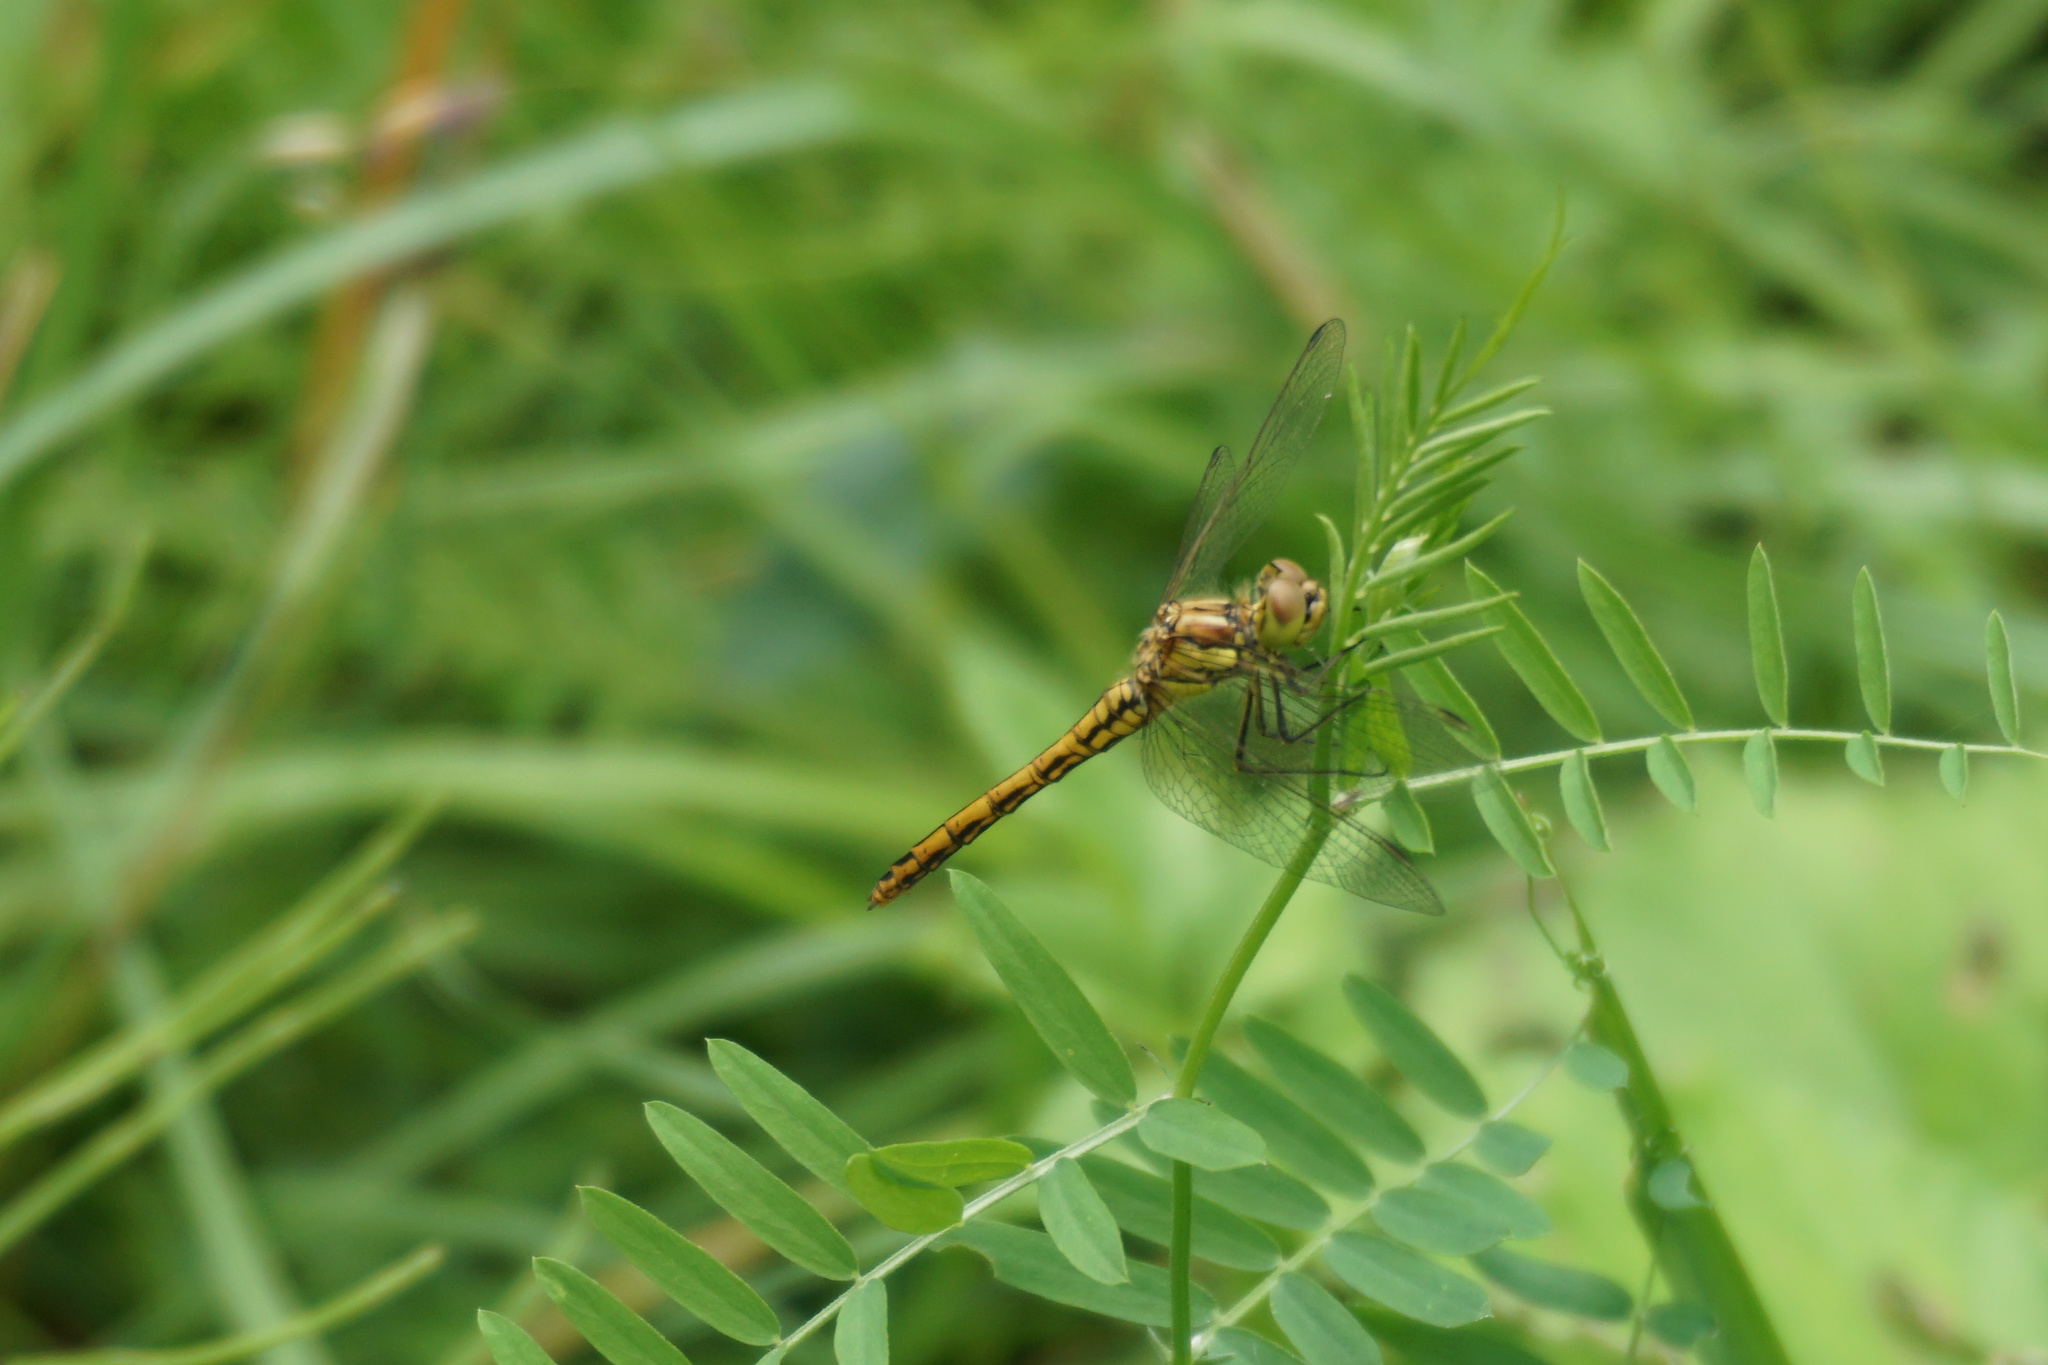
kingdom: Animalia
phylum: Arthropoda
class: Insecta
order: Odonata
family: Libellulidae
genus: Sympetrum
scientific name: Sympetrum vulgatum
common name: Vagrant darter
